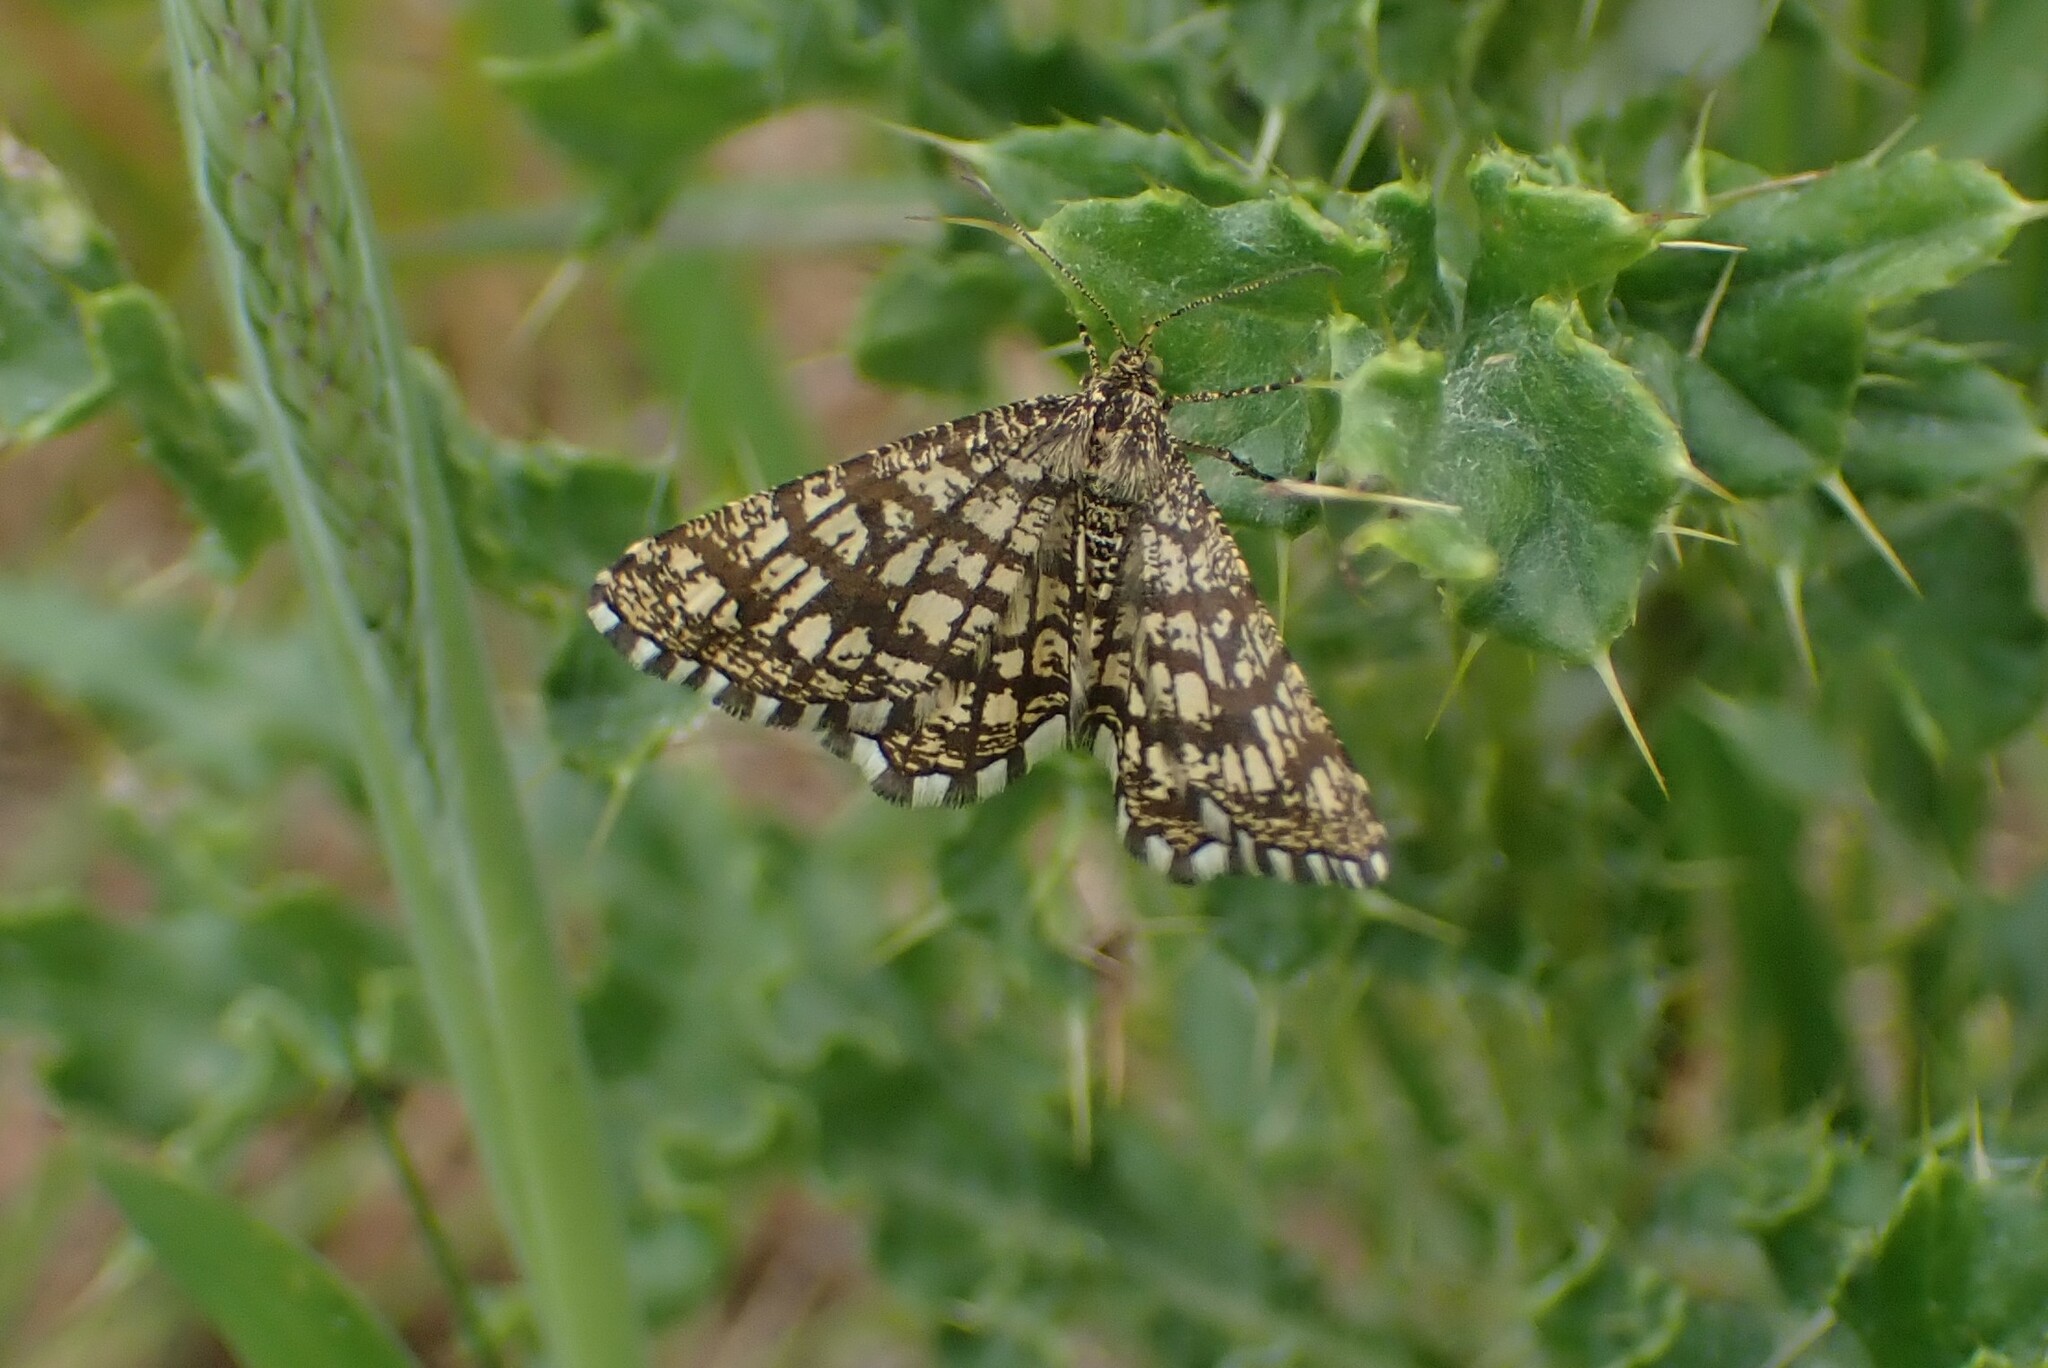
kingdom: Animalia
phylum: Arthropoda
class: Insecta
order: Lepidoptera
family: Geometridae
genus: Chiasmia
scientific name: Chiasmia clathrata
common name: Latticed heath
